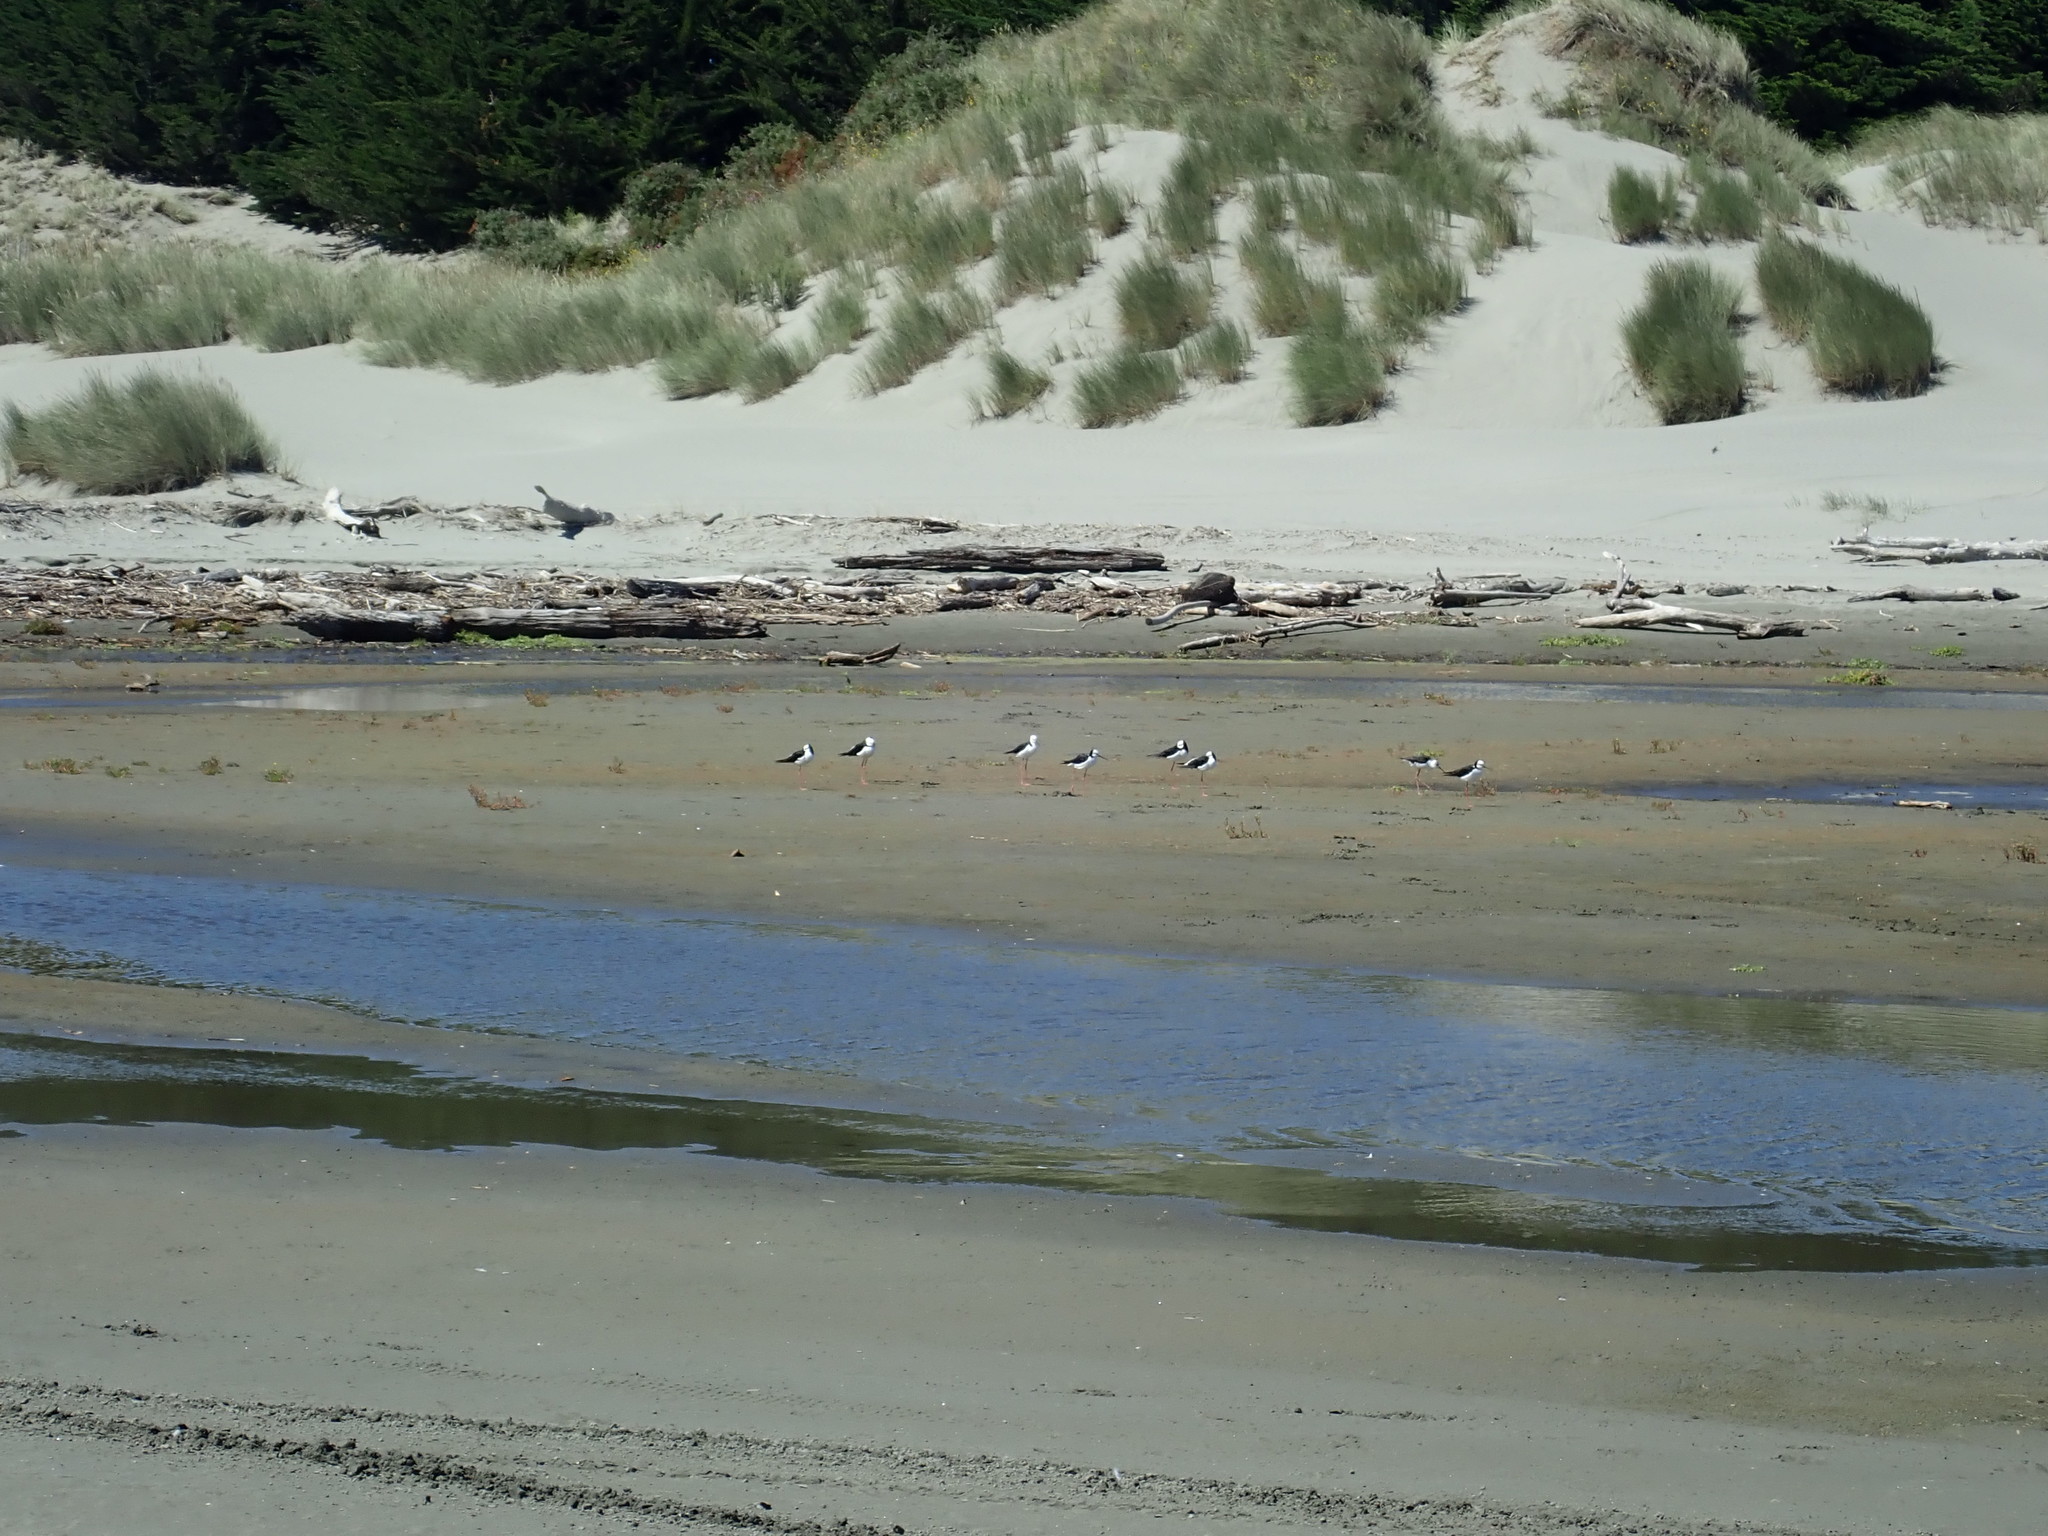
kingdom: Animalia
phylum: Chordata
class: Aves
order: Charadriiformes
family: Recurvirostridae
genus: Himantopus
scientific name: Himantopus leucocephalus
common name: White-headed stilt
